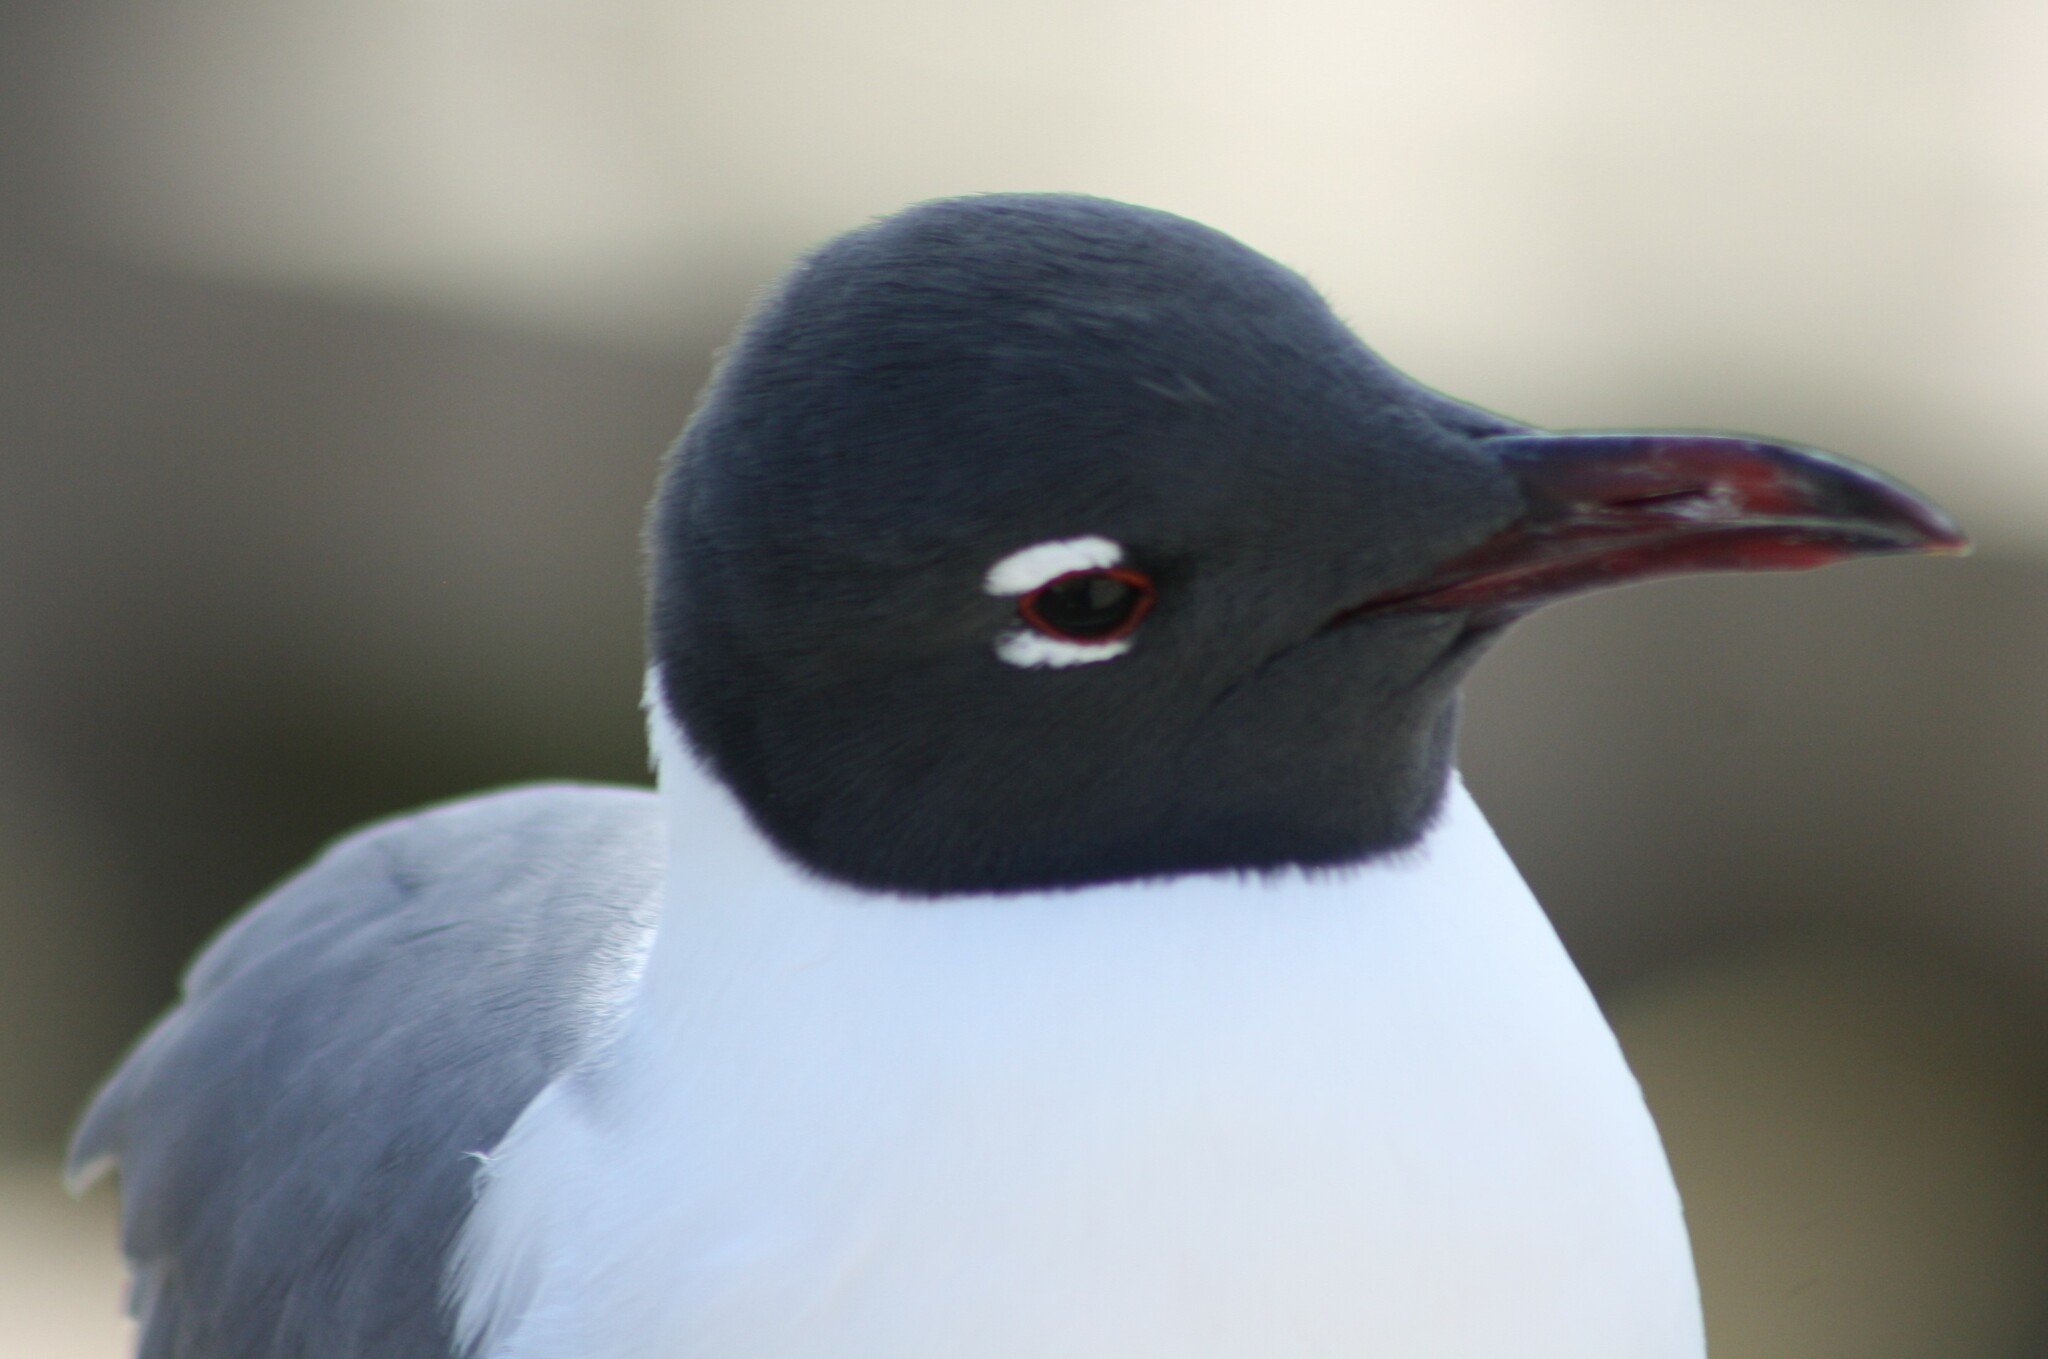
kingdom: Animalia
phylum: Chordata
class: Aves
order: Charadriiformes
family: Laridae
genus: Leucophaeus
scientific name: Leucophaeus atricilla
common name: Laughing gull
